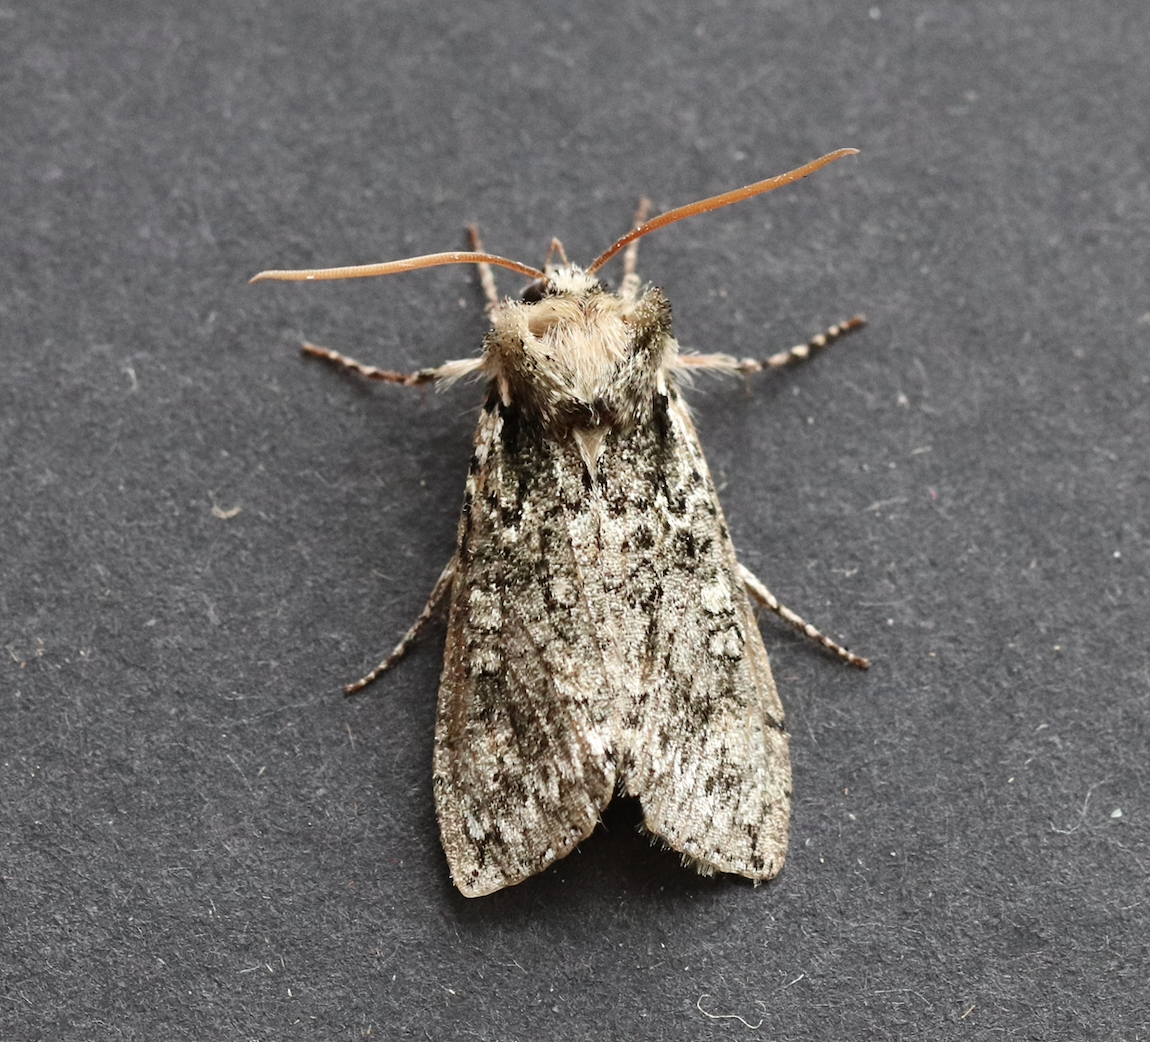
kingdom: Animalia
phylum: Arthropoda
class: Insecta
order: Lepidoptera
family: Drepanidae
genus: Polyploca
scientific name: Polyploca ridens
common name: Frosted green
